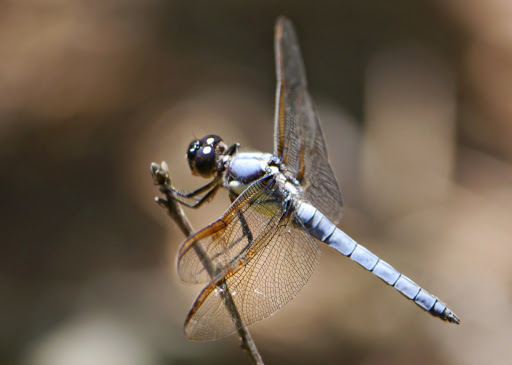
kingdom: Animalia
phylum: Arthropoda
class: Insecta
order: Odonata
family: Libellulidae
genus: Libellula
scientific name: Libellula flavida
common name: Yellow-sided skimmer
